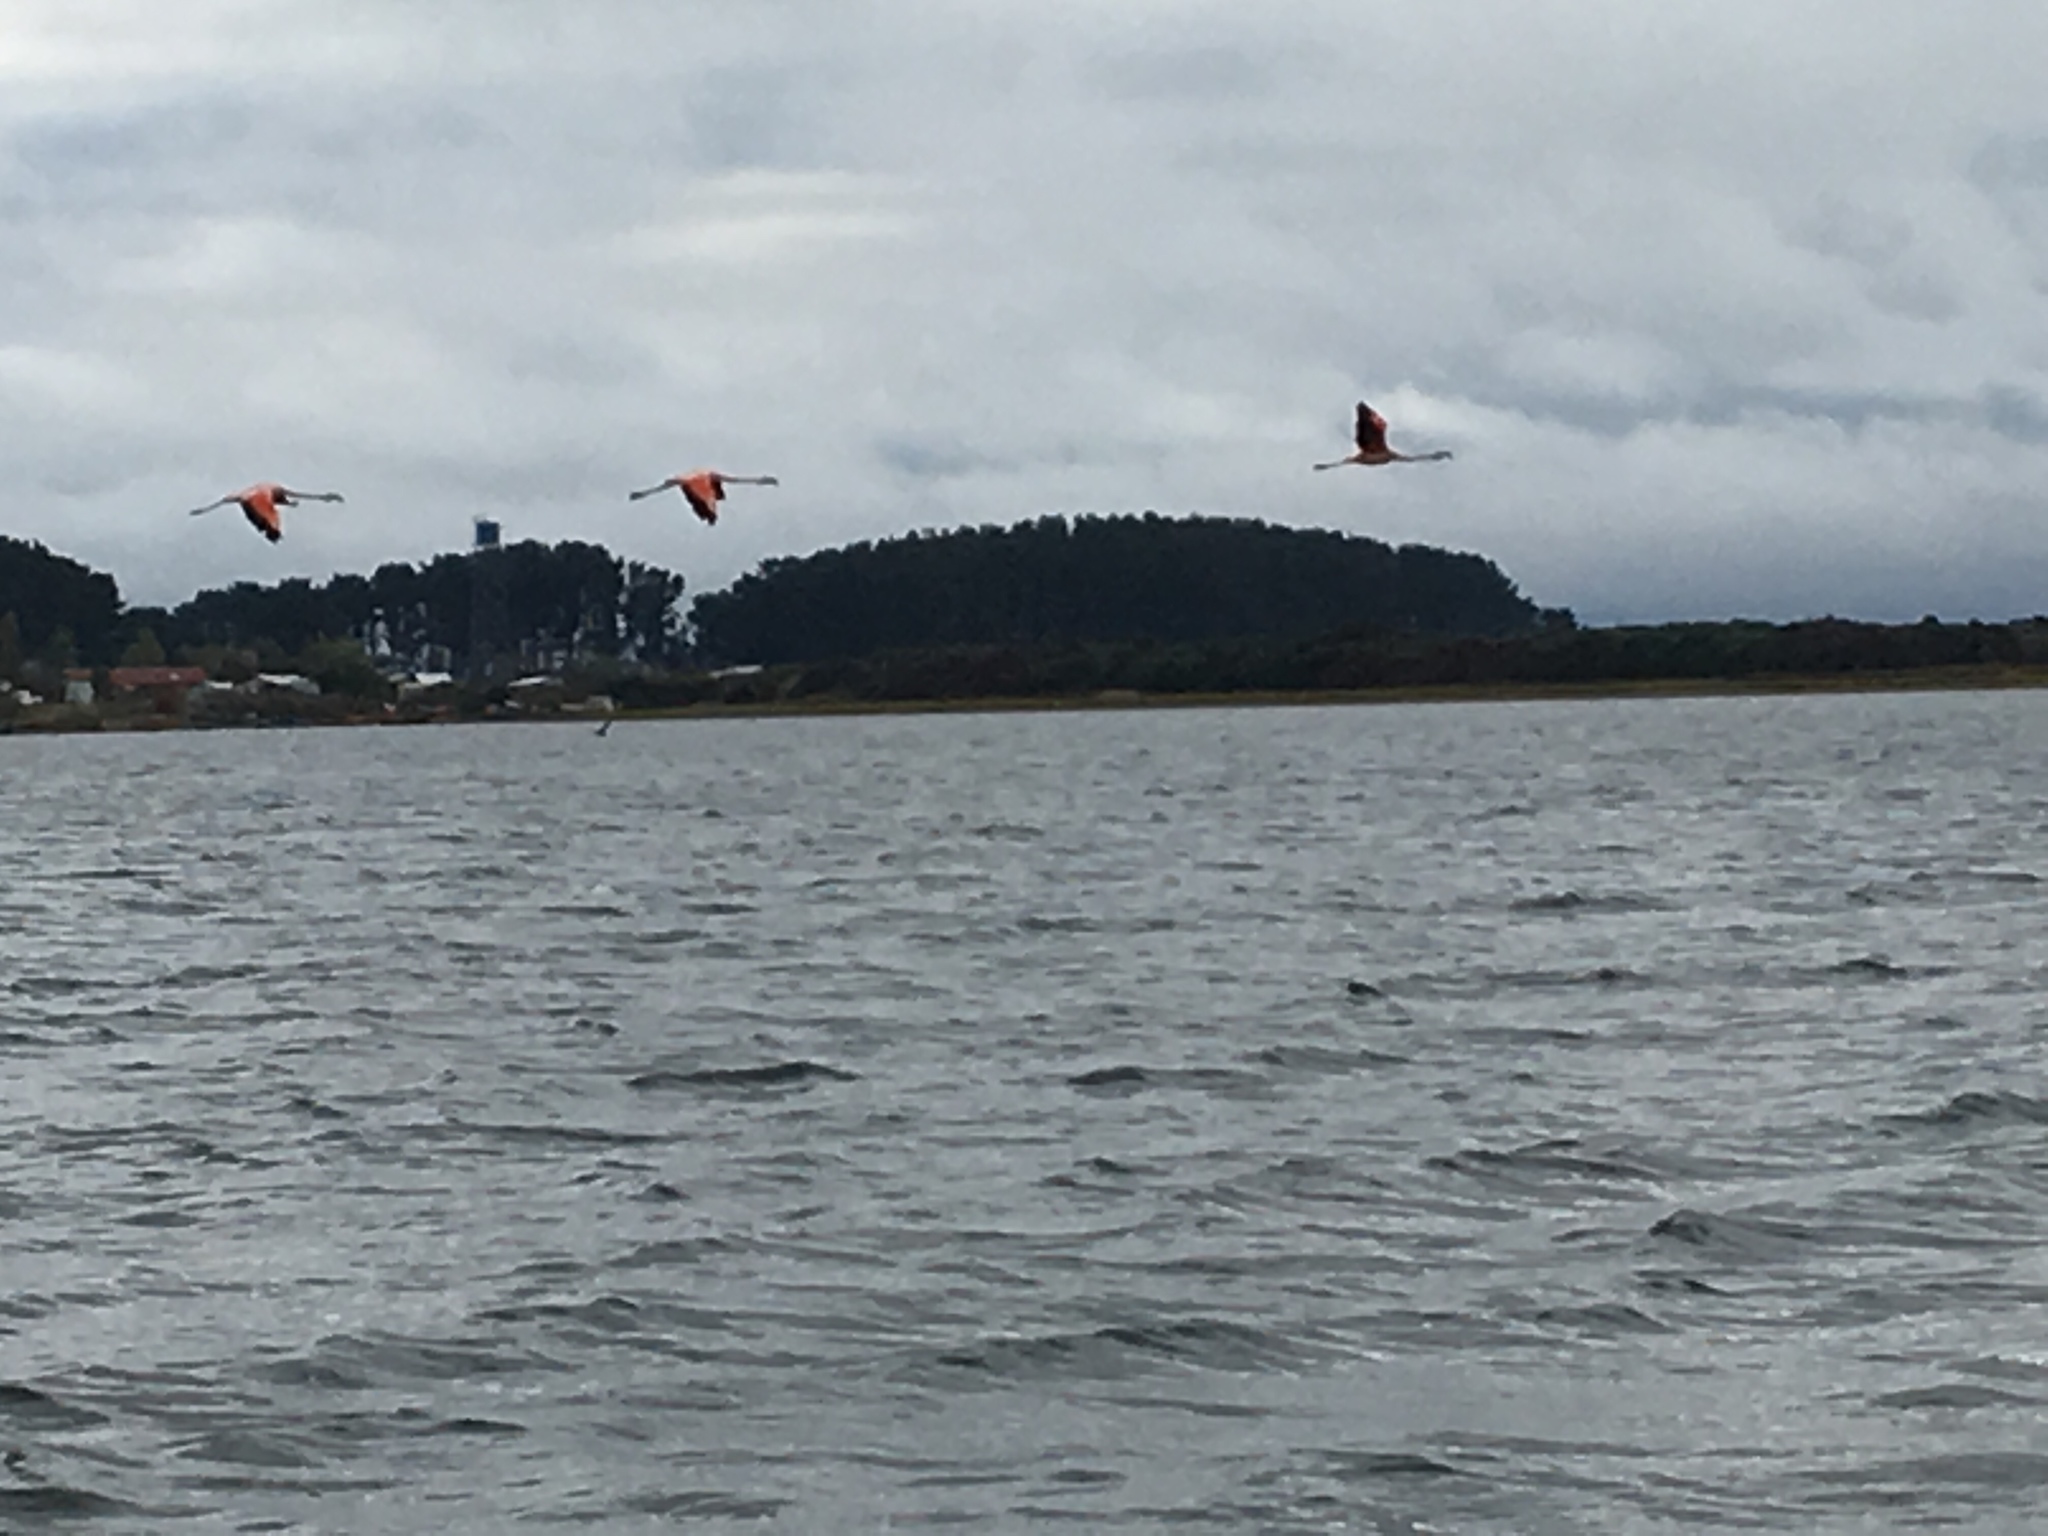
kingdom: Animalia
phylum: Chordata
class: Aves
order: Phoenicopteriformes
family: Phoenicopteridae
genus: Phoenicopterus
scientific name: Phoenicopterus chilensis
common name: Chilean flamingo
